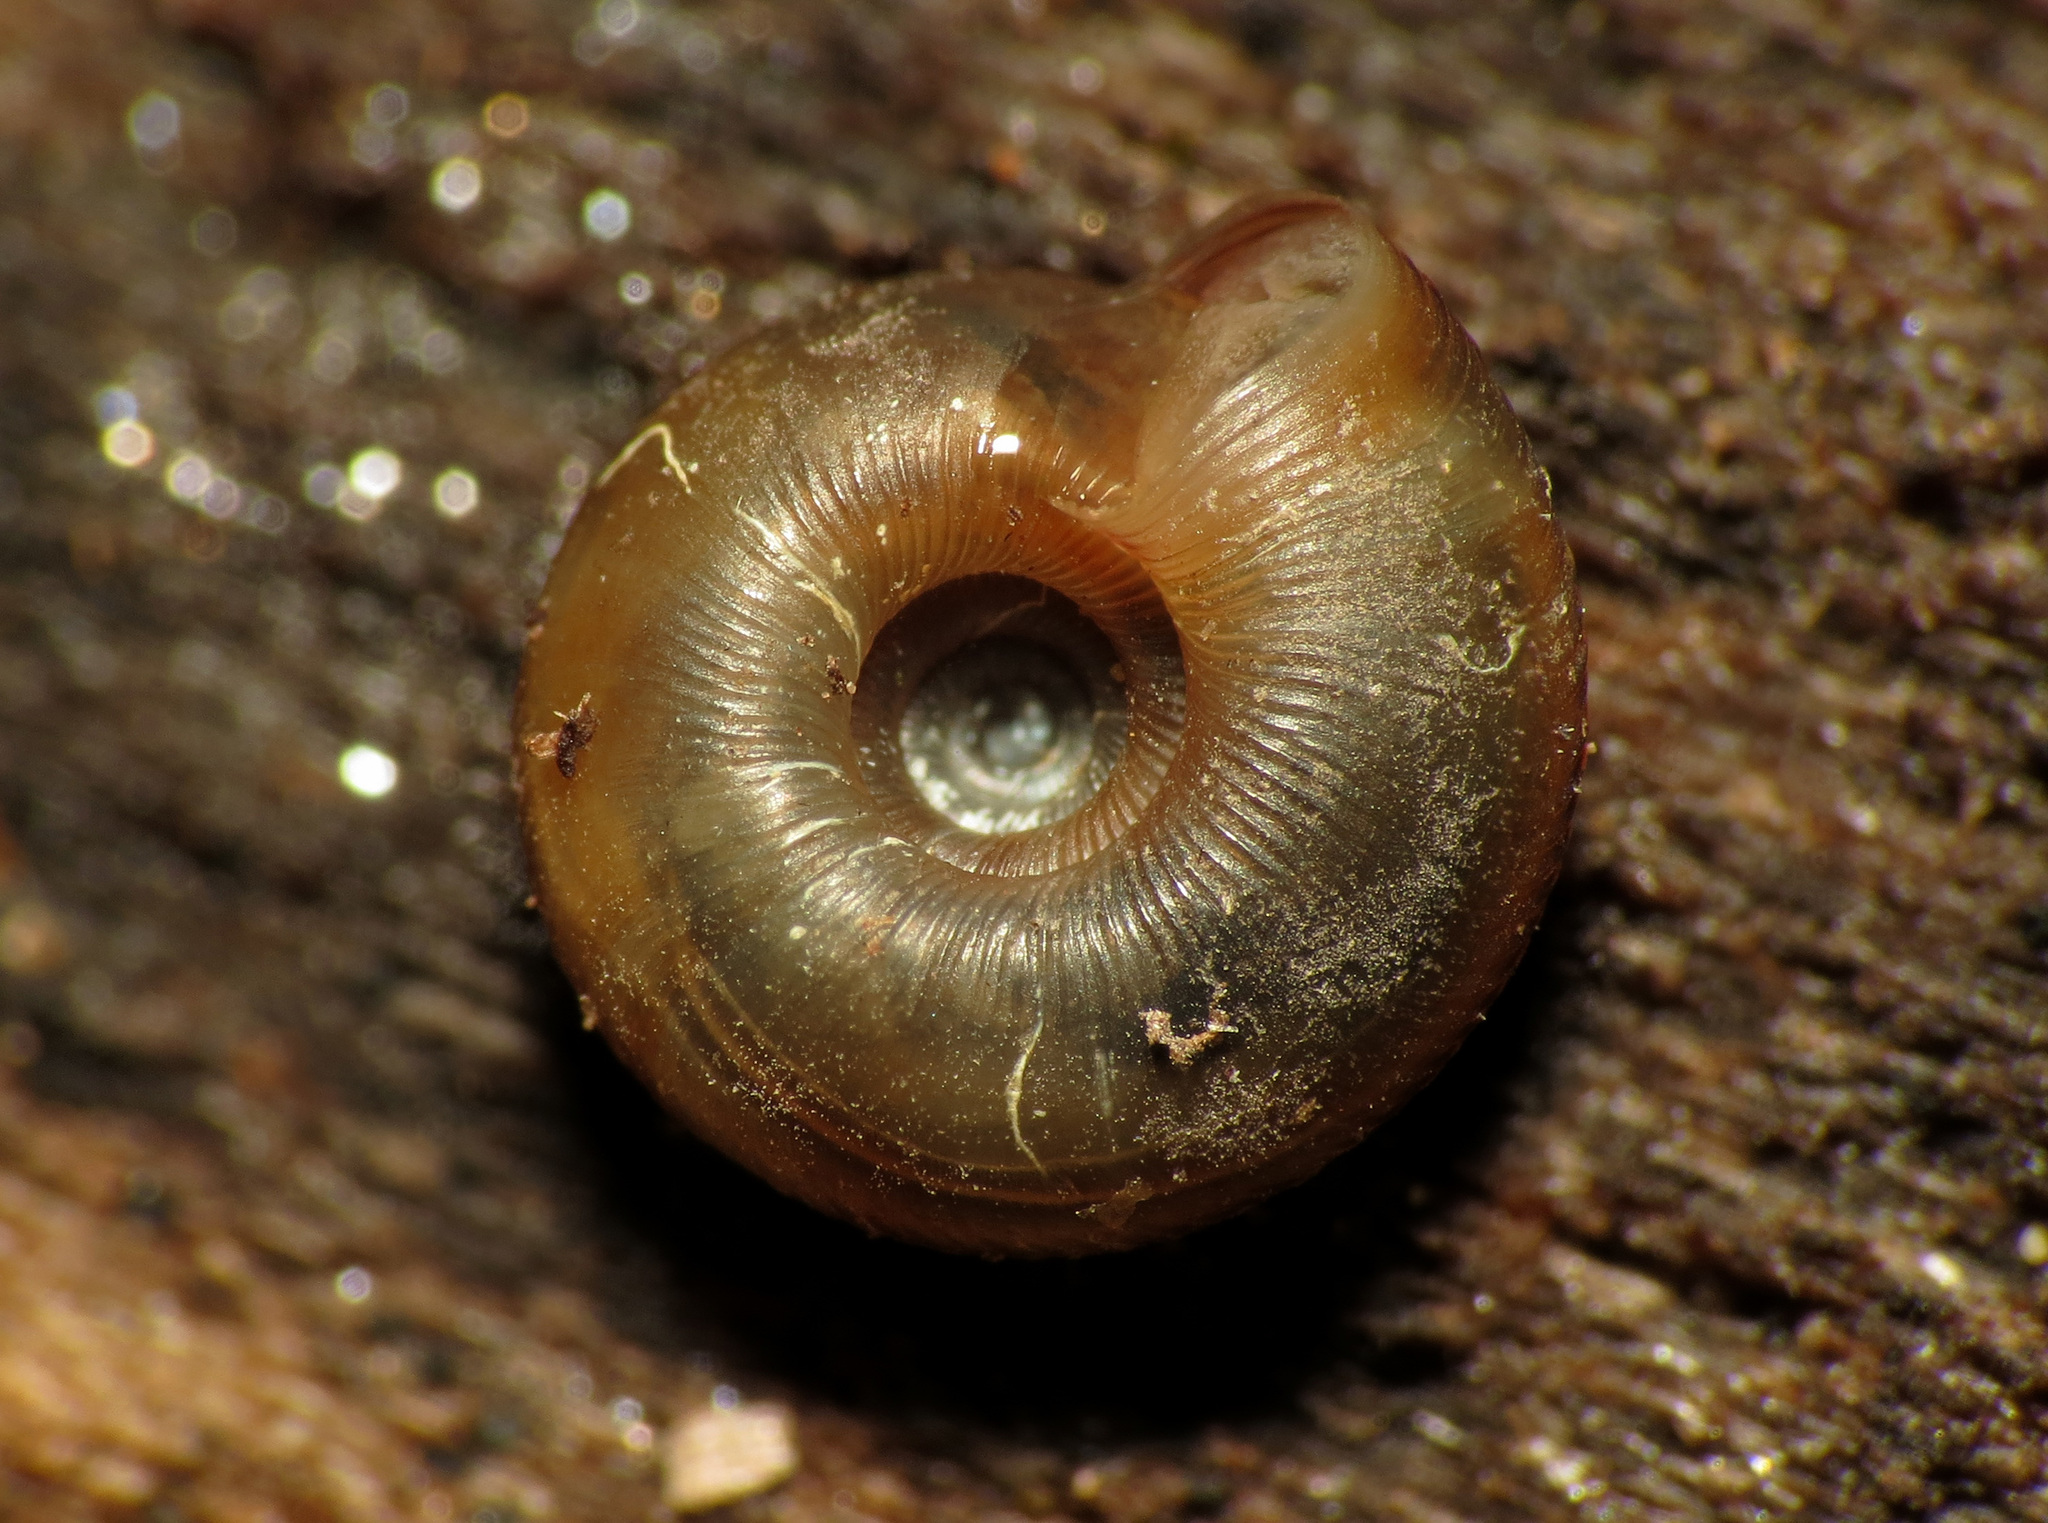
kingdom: Animalia
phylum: Mollusca
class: Gastropoda
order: Stylommatophora
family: Discidae
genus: Discus
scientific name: Discus rotundatus
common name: Rounded snail
